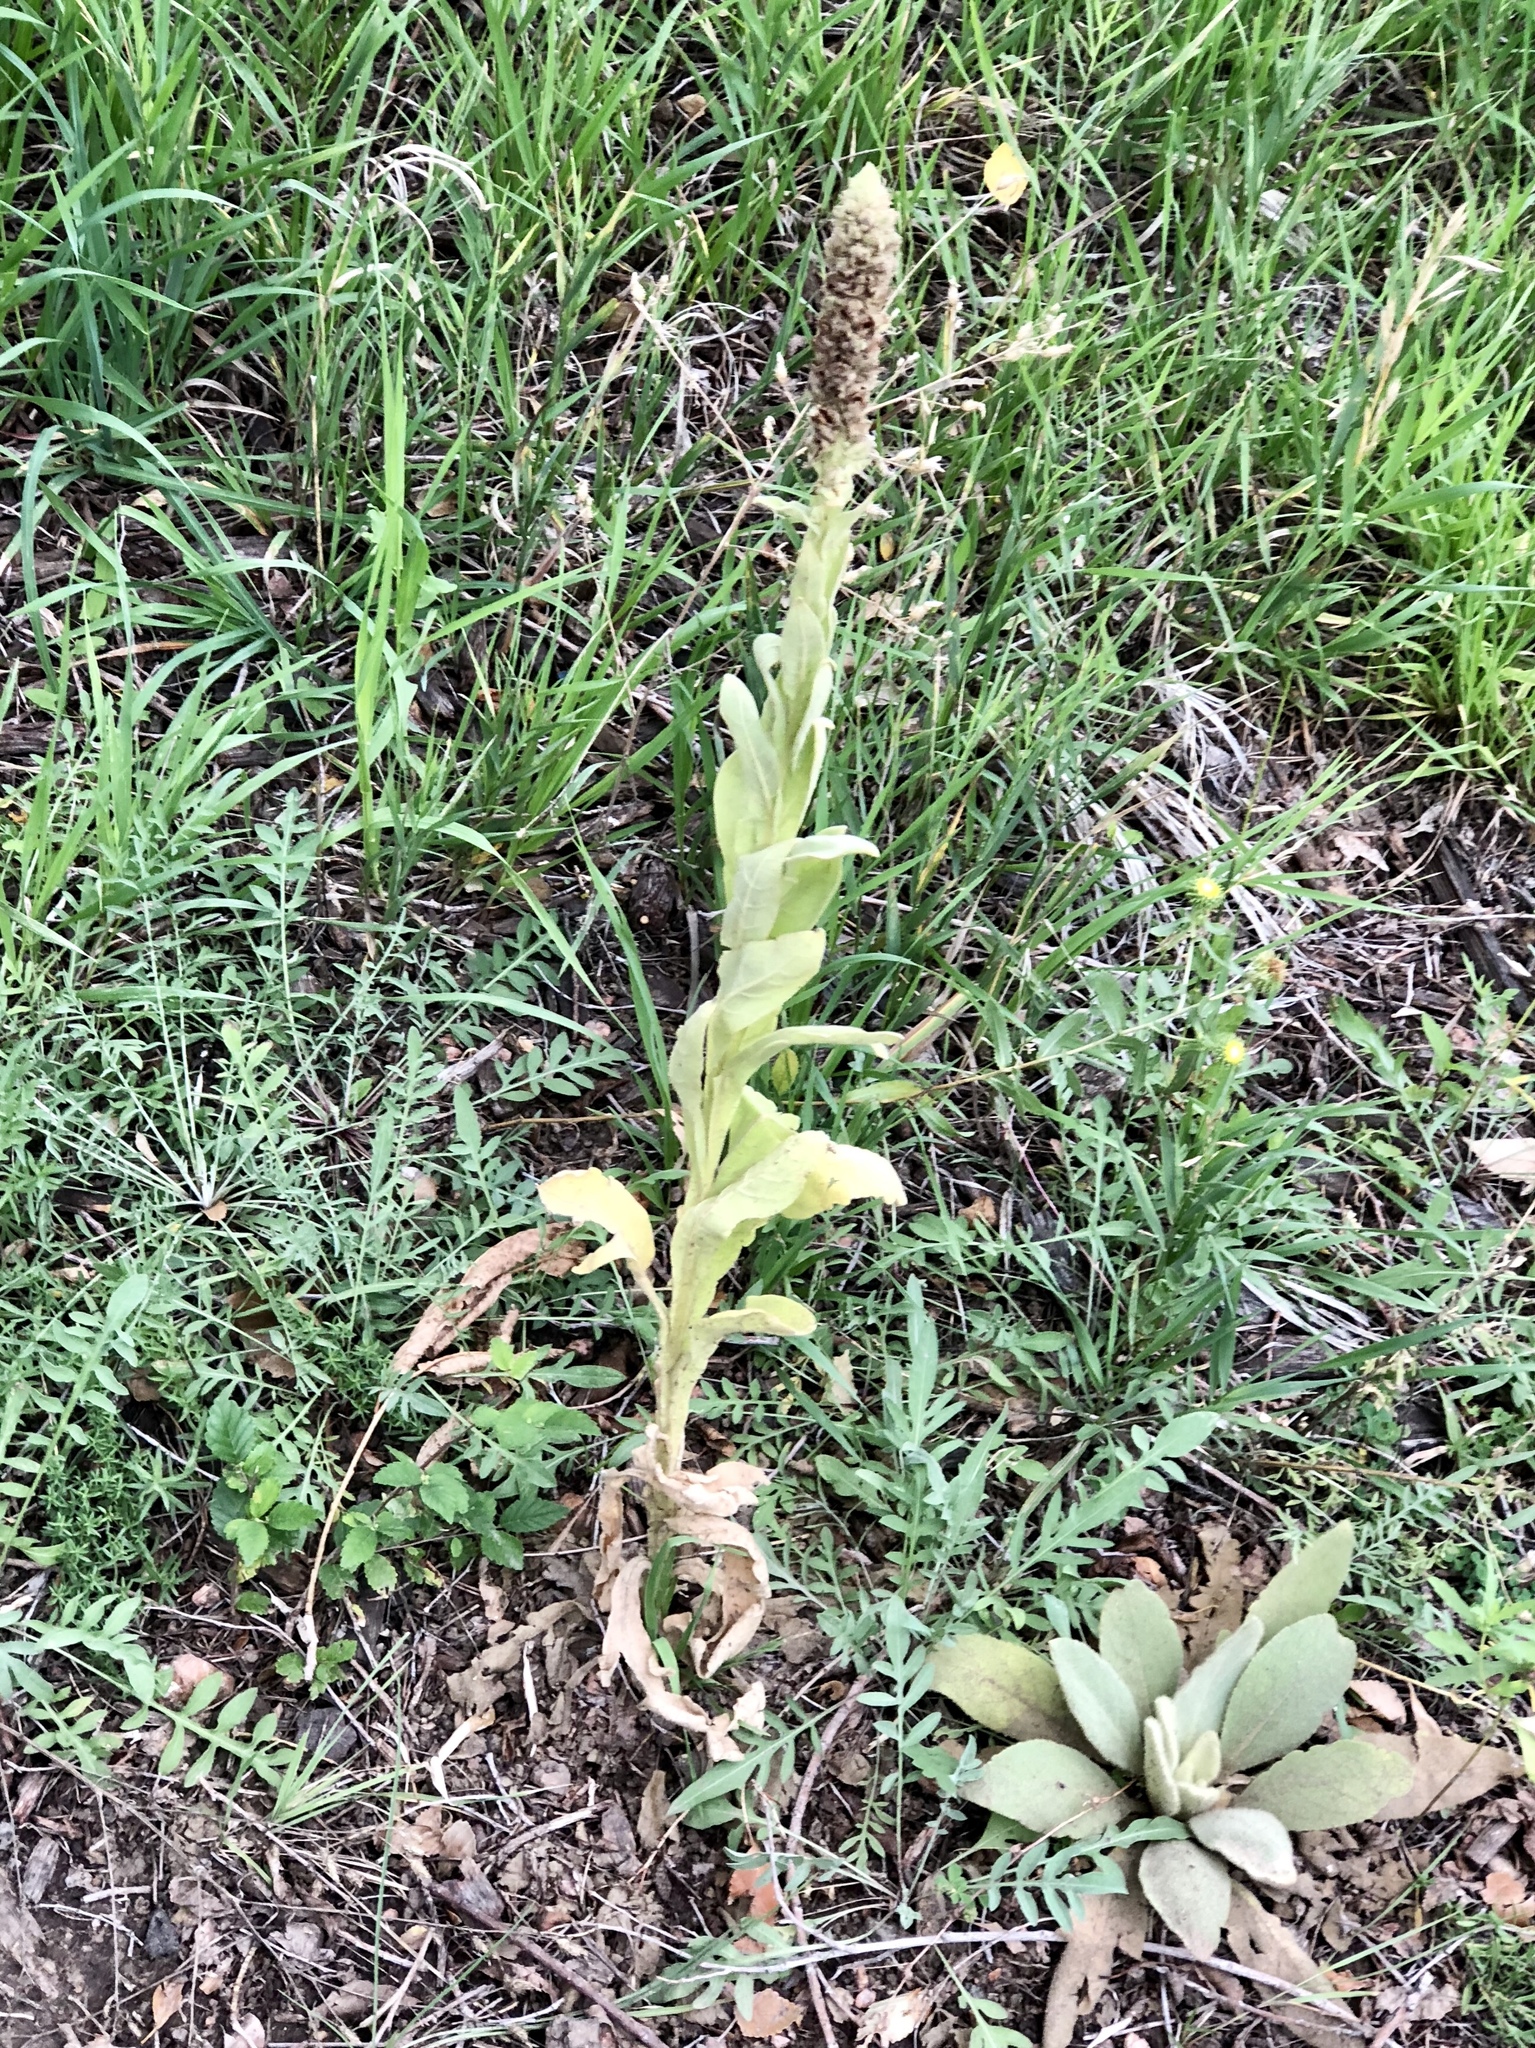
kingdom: Plantae
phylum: Tracheophyta
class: Magnoliopsida
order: Lamiales
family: Scrophulariaceae
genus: Verbascum
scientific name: Verbascum thapsus
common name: Common mullein
